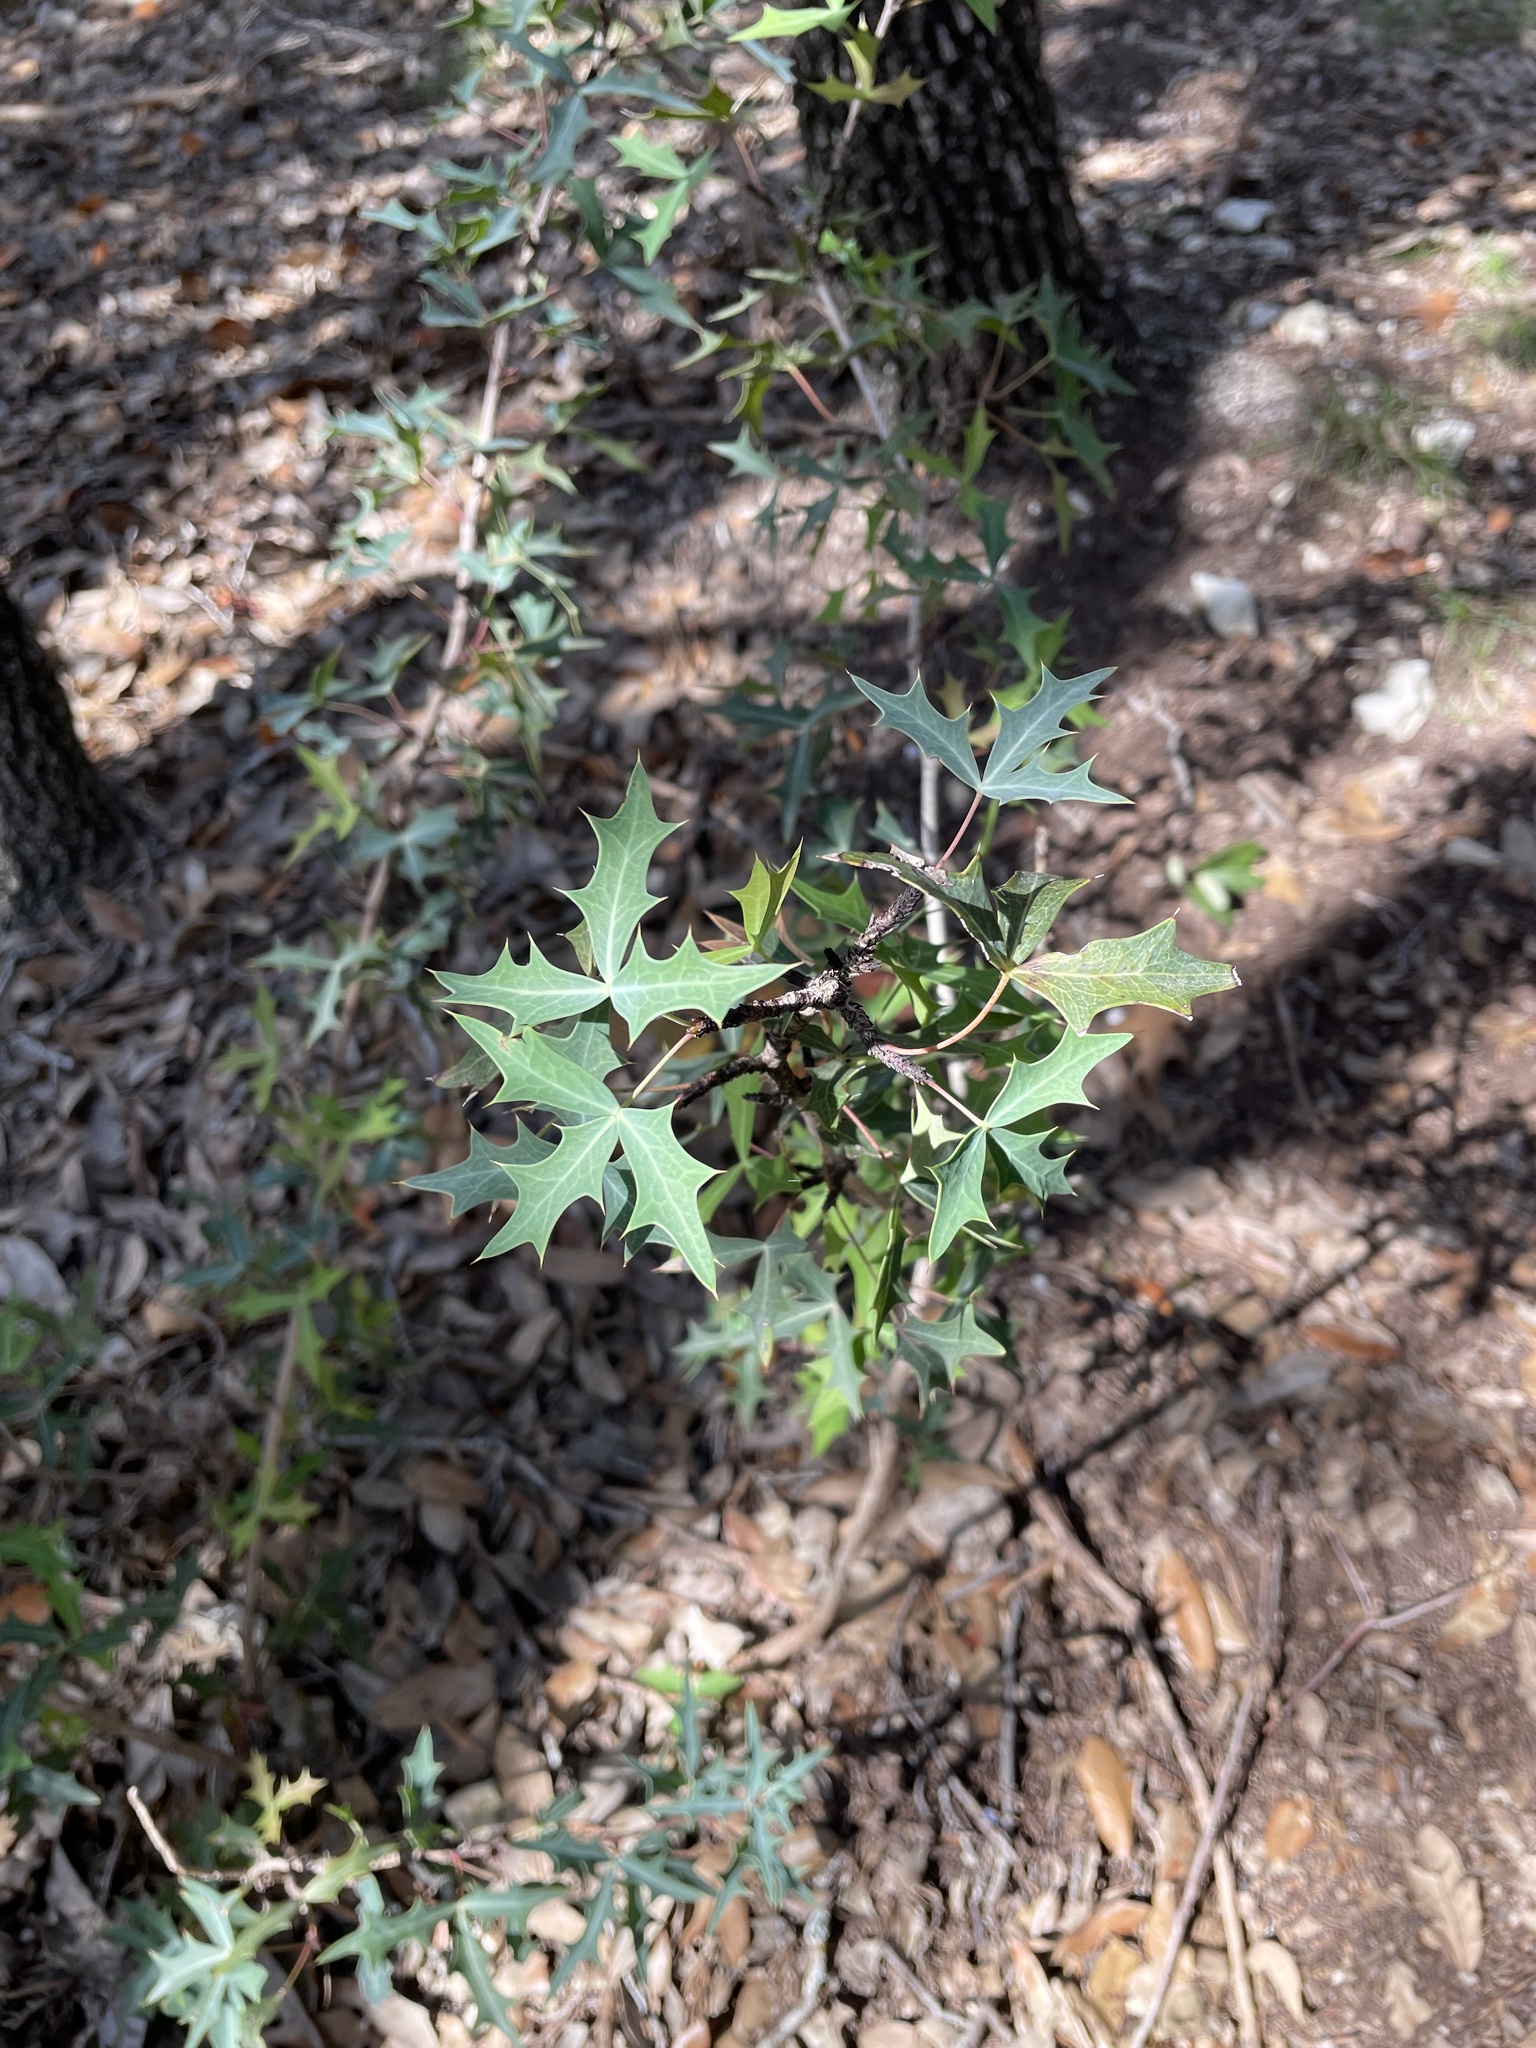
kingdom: Plantae
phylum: Tracheophyta
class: Magnoliopsida
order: Ranunculales
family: Berberidaceae
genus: Alloberberis
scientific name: Alloberberis trifoliolata
